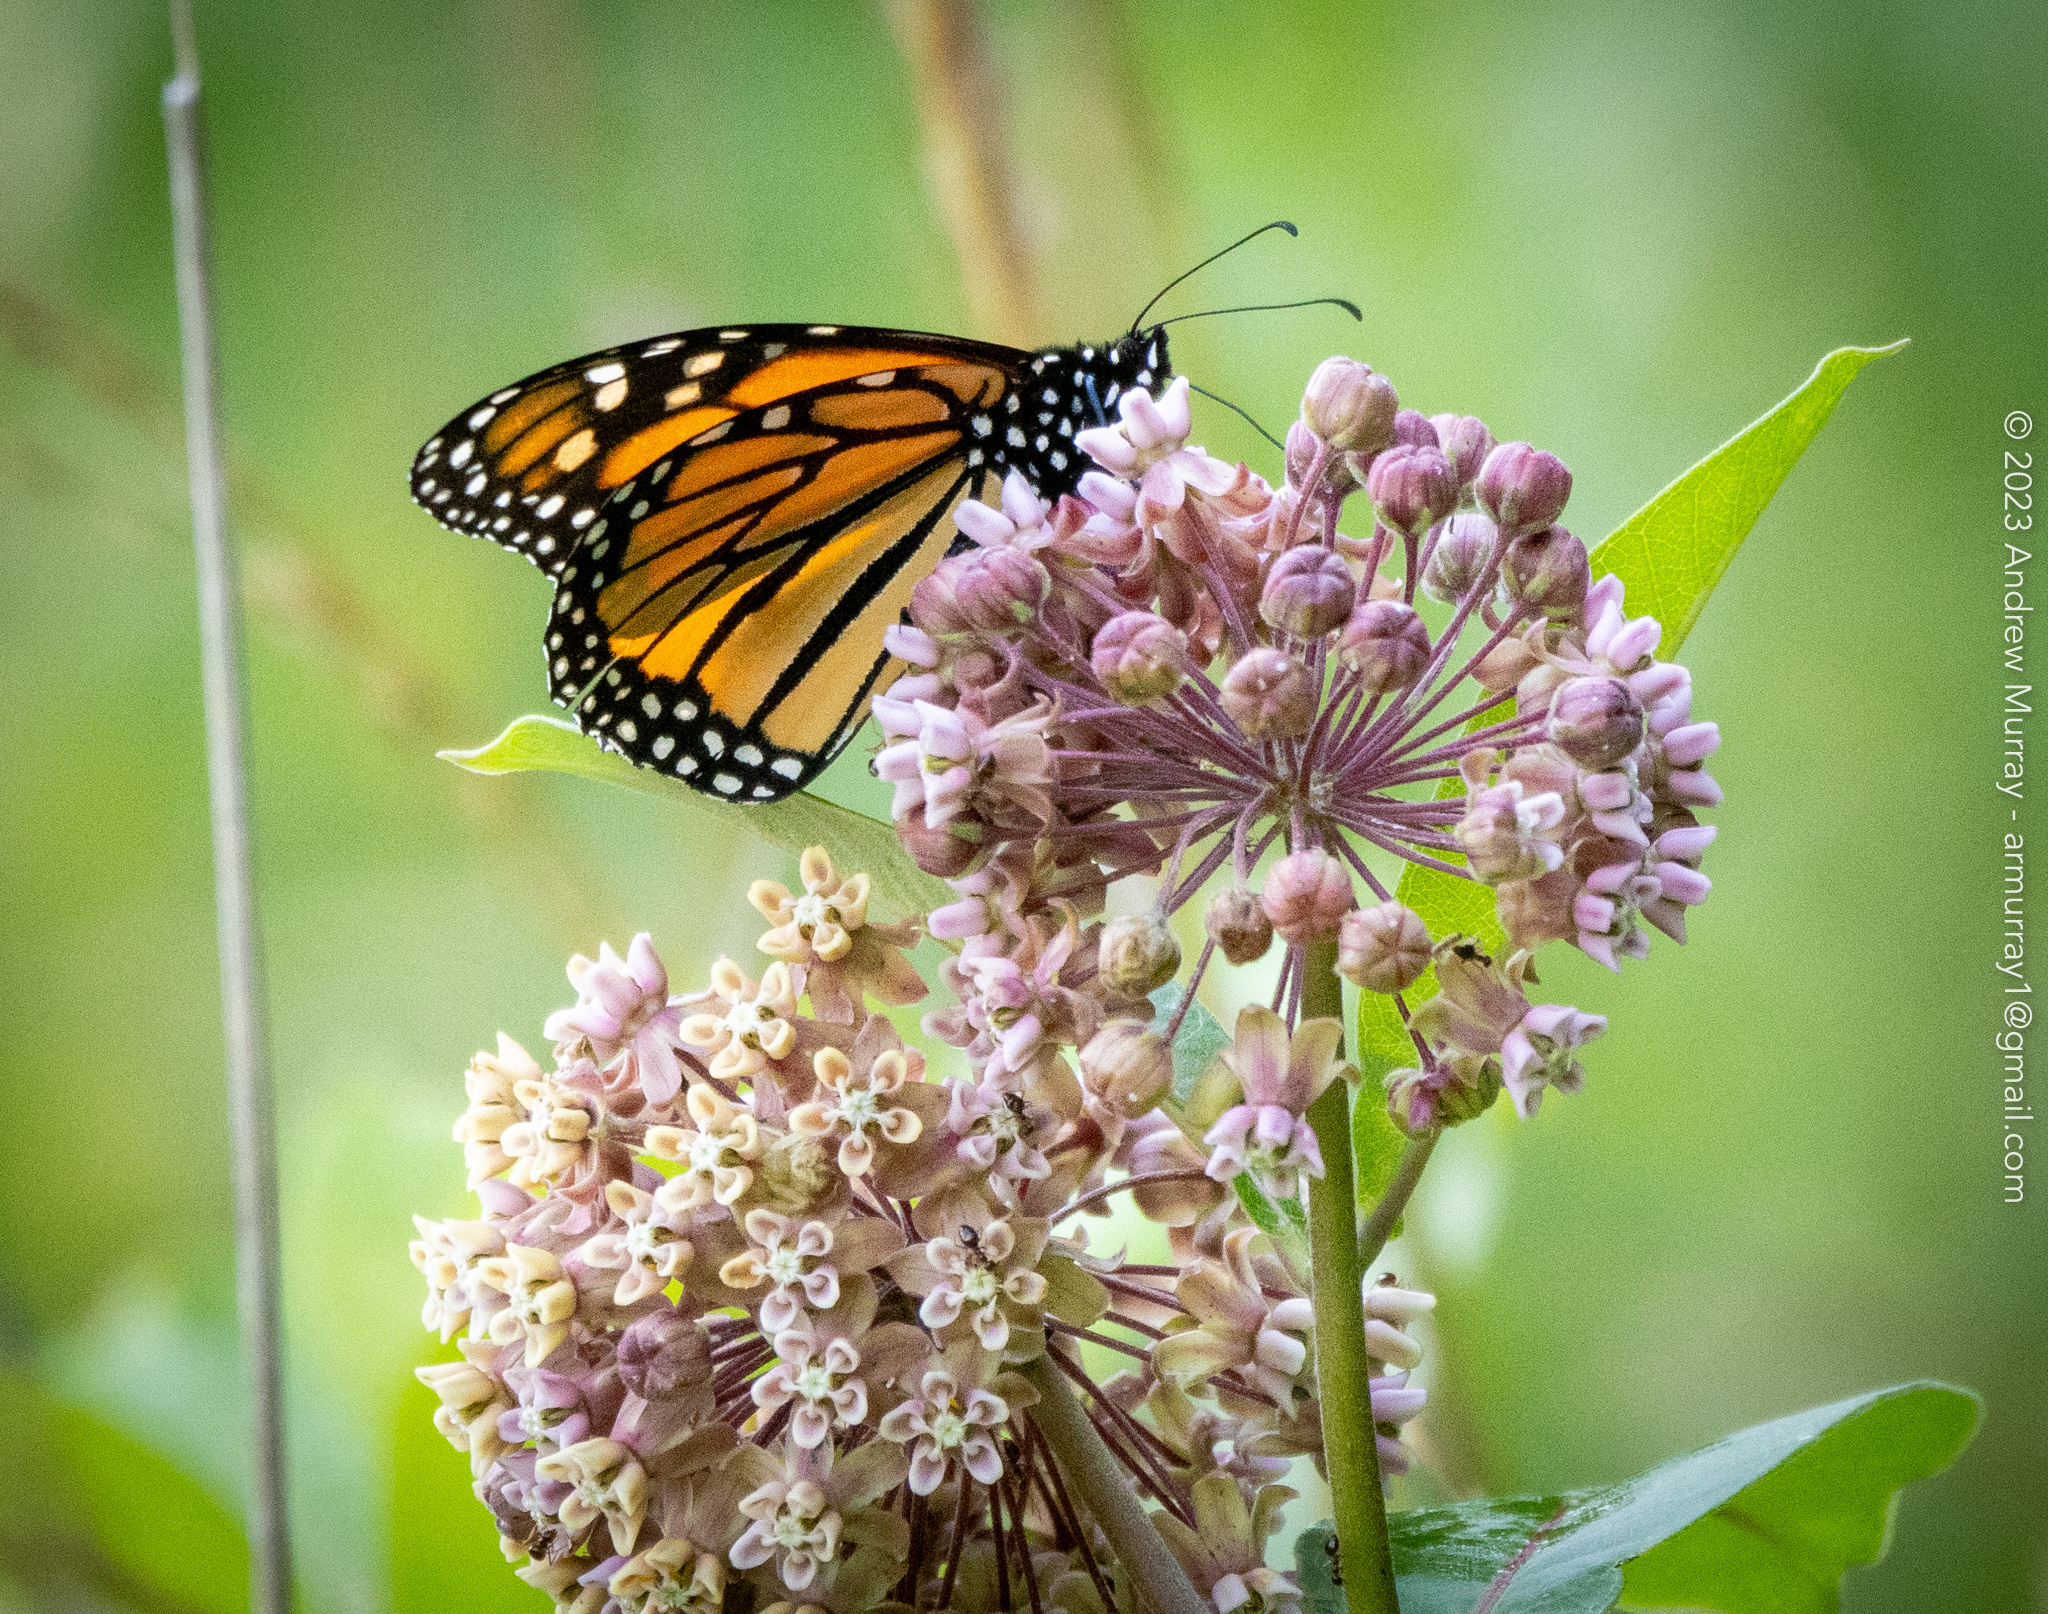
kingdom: Animalia
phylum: Arthropoda
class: Insecta
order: Lepidoptera
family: Nymphalidae
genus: Danaus
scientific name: Danaus plexippus
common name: Monarch
